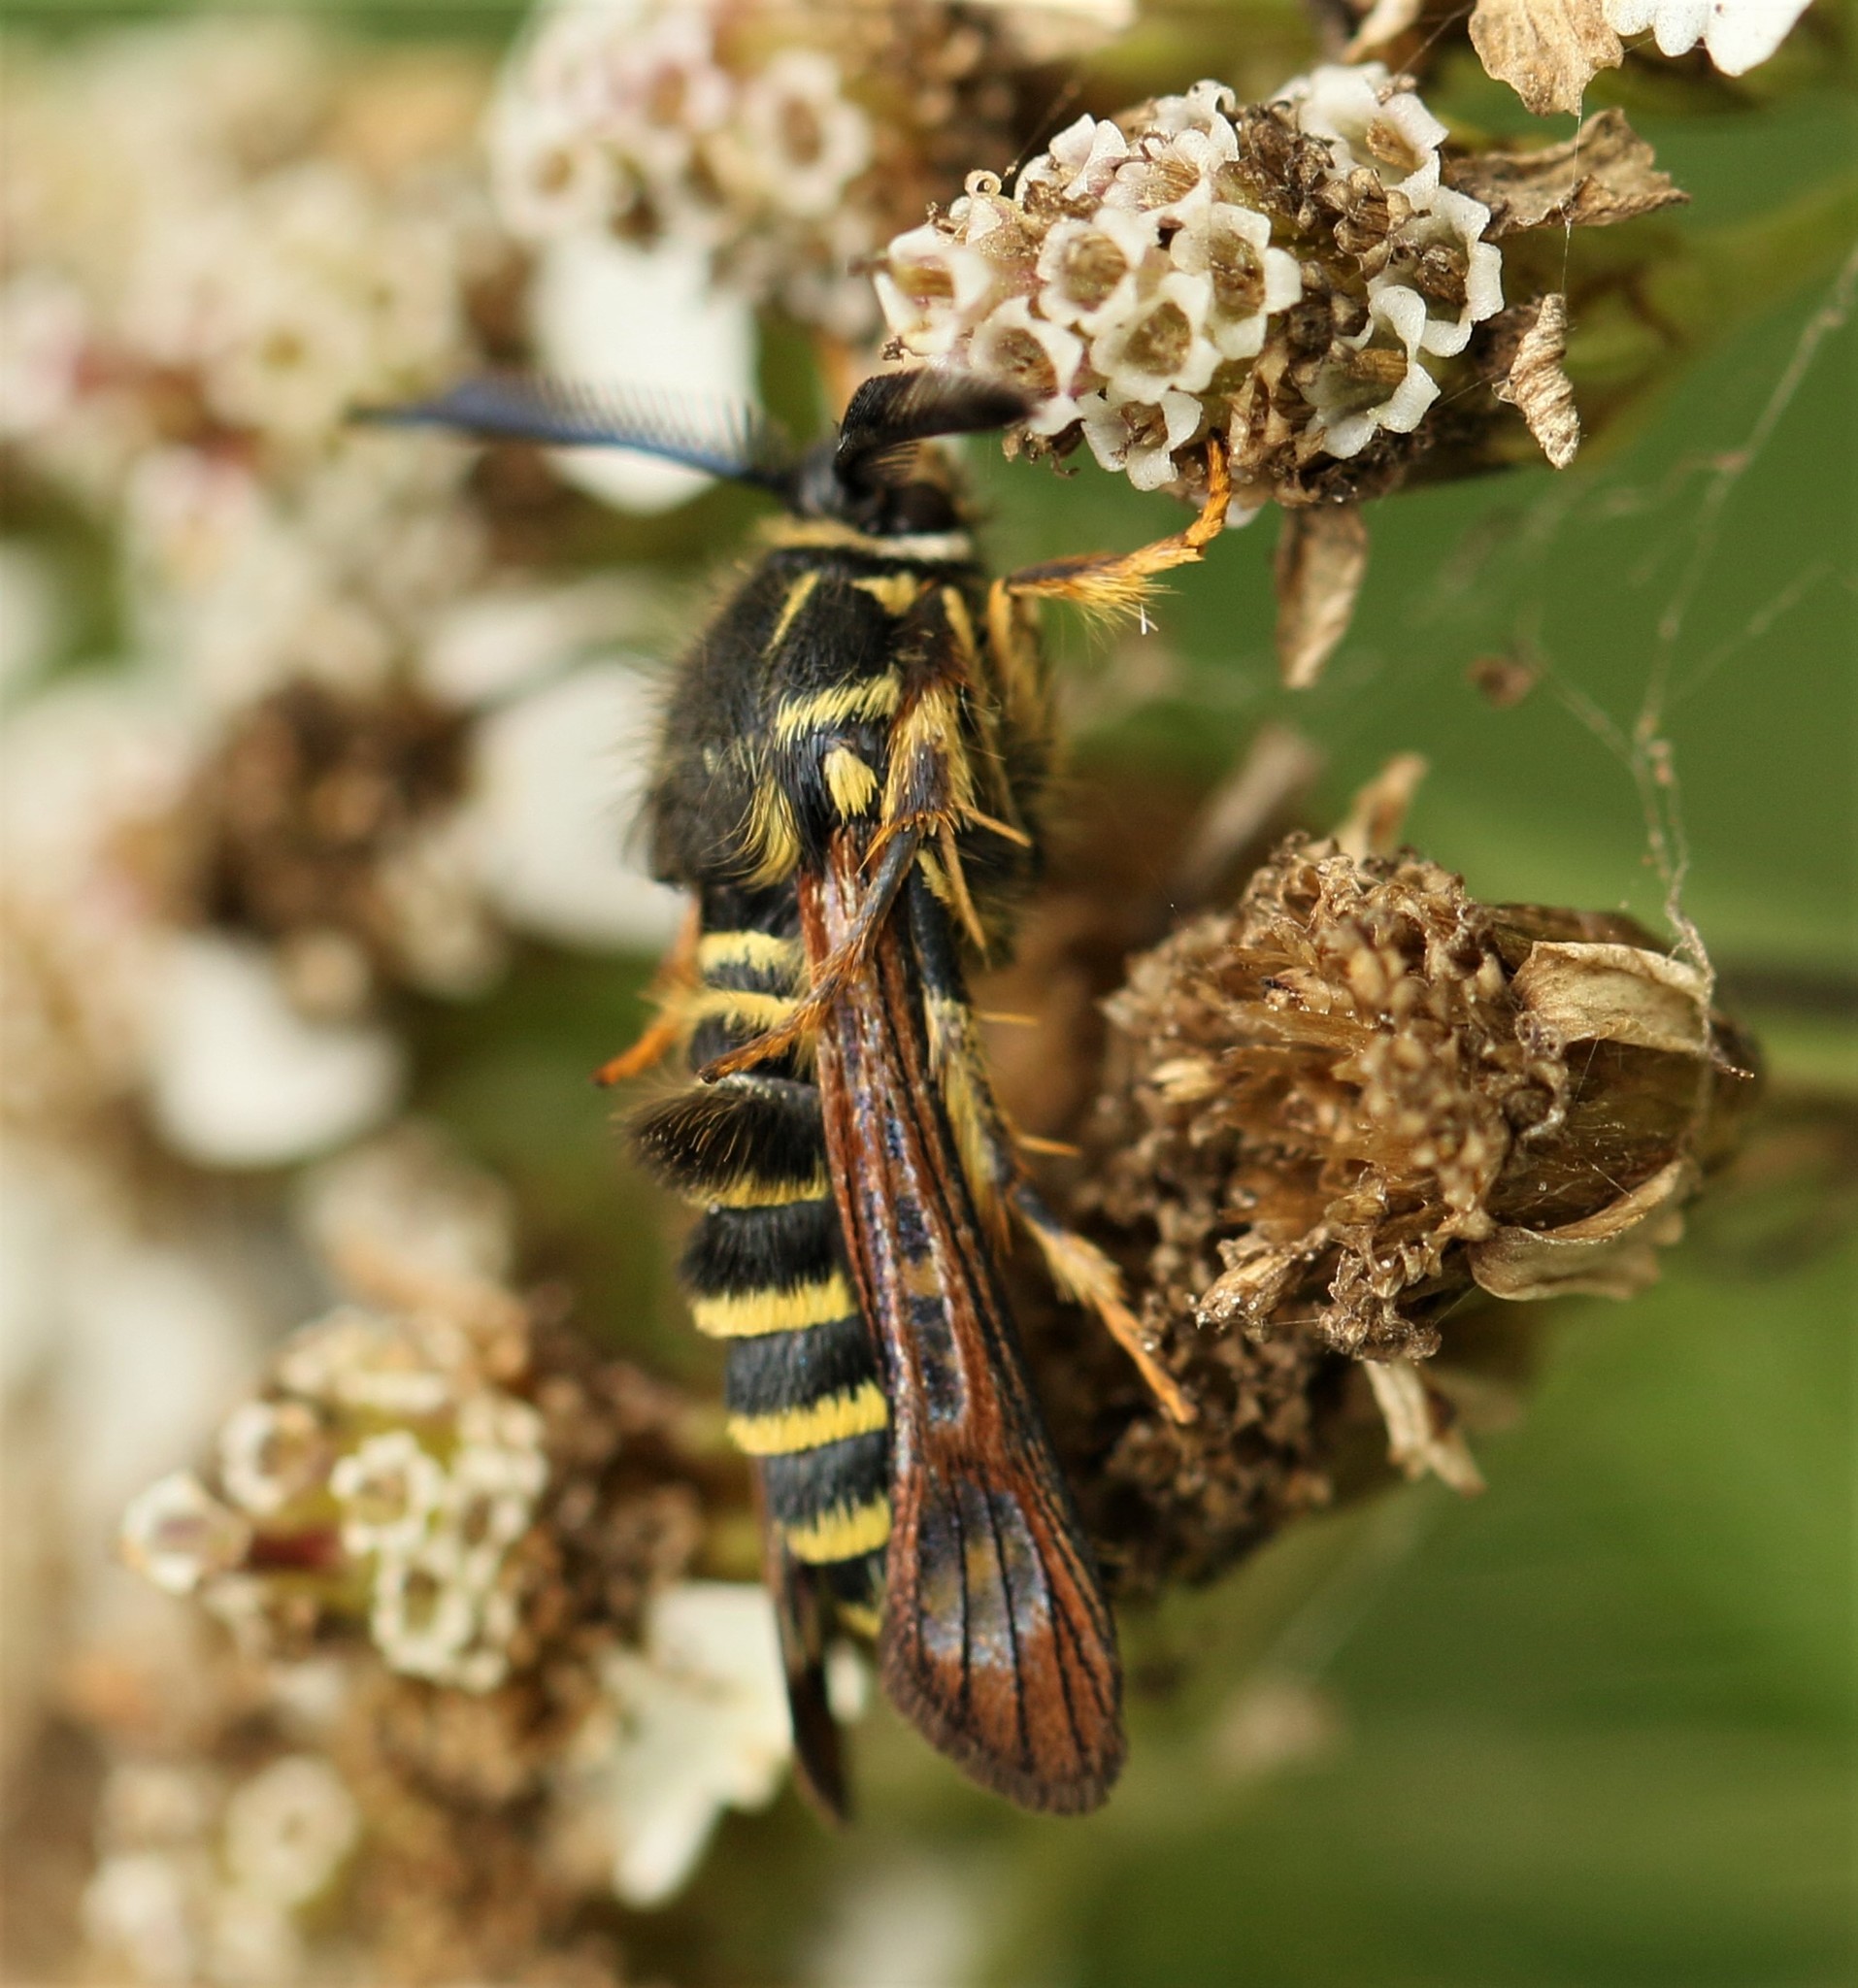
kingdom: Animalia
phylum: Arthropoda
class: Insecta
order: Lepidoptera
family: Sesiidae
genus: Pennisetia
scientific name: Pennisetia marginatum
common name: Raspberry crown borer
